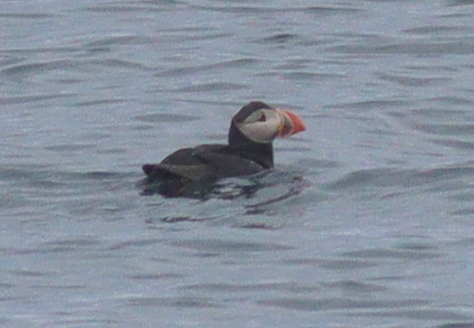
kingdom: Animalia
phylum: Chordata
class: Aves
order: Charadriiformes
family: Alcidae
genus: Fratercula
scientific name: Fratercula arctica
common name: Atlantic puffin
